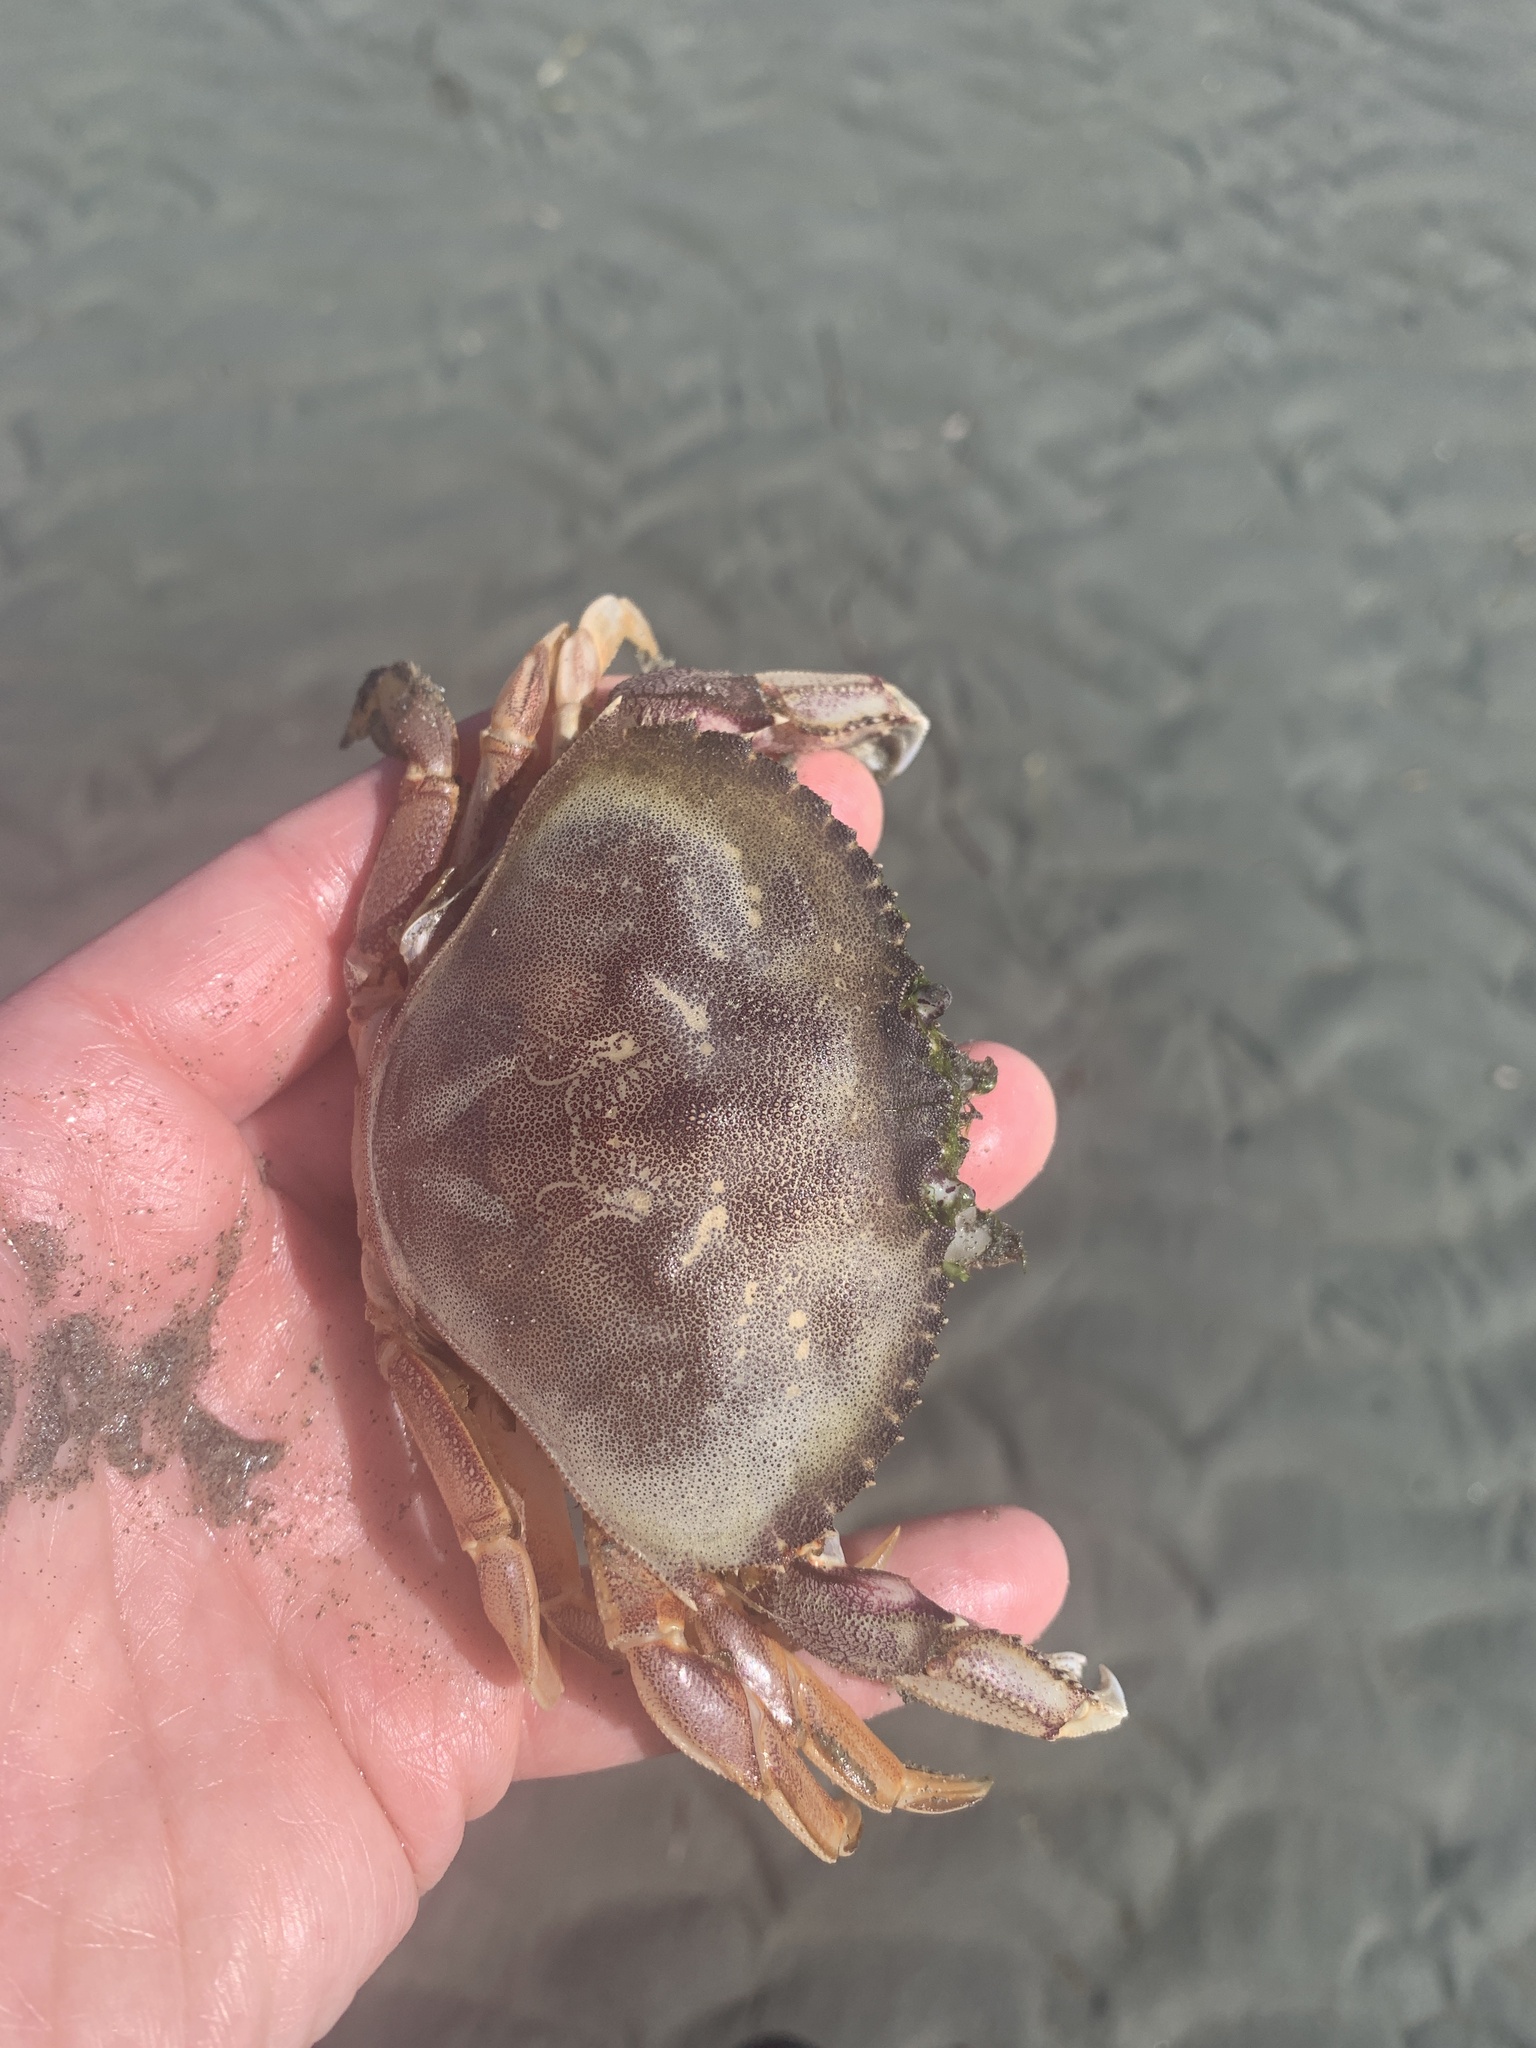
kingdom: Animalia
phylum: Arthropoda
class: Malacostraca
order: Decapoda
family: Cancridae
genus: Metacarcinus
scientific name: Metacarcinus magister
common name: Californian crab
